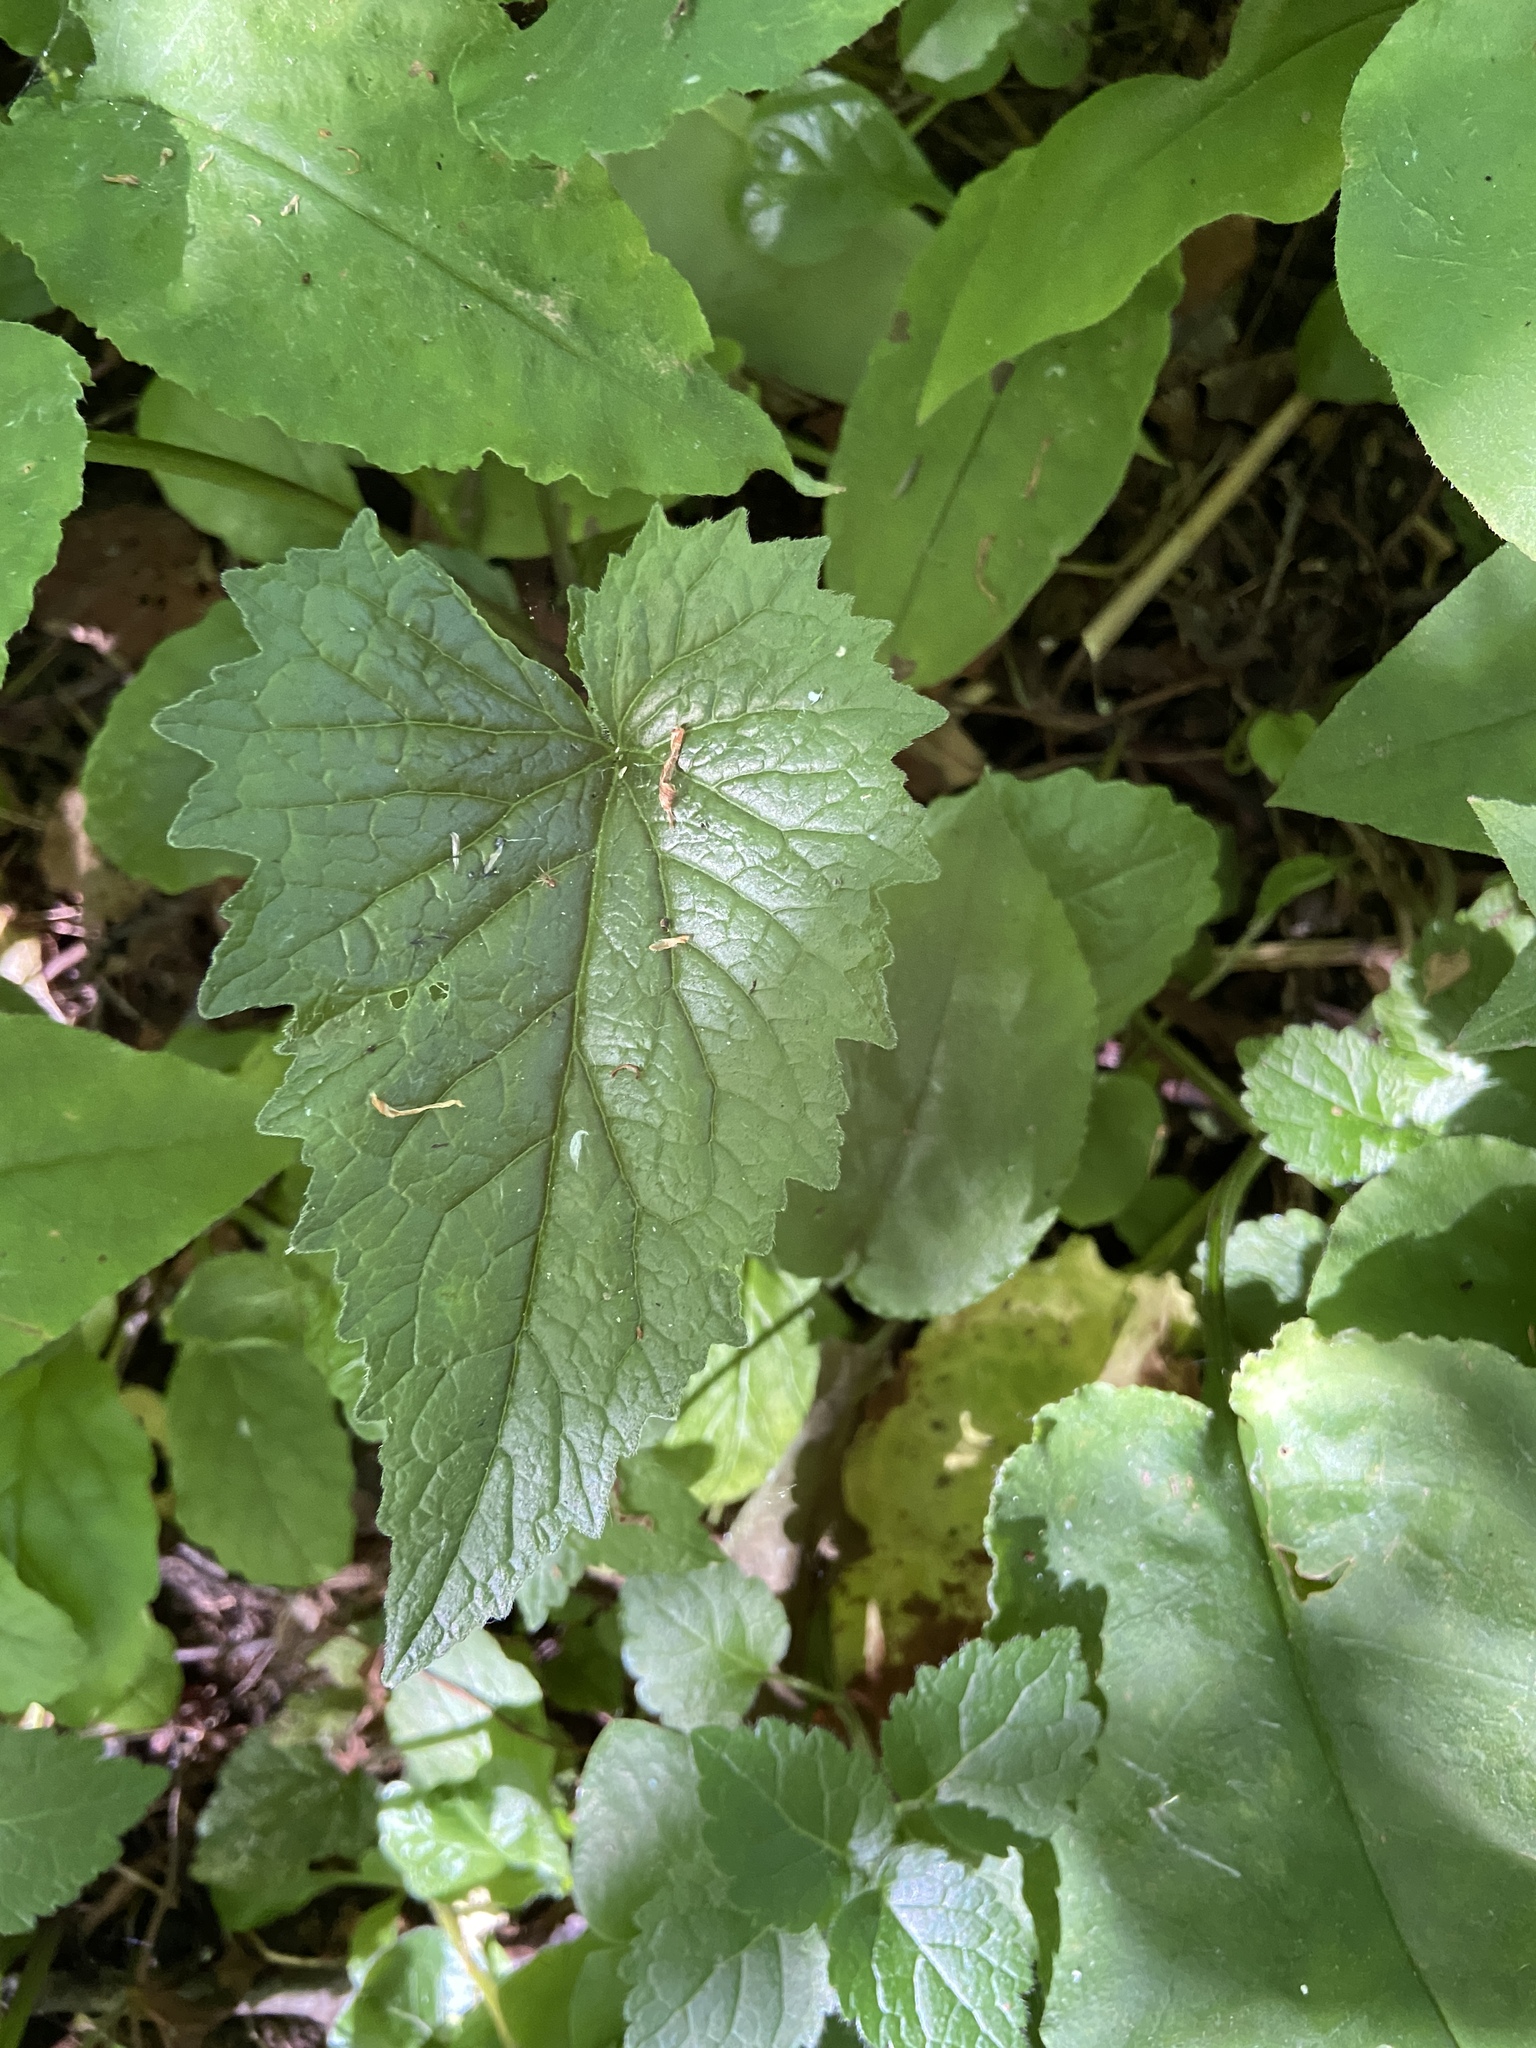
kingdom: Plantae
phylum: Tracheophyta
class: Magnoliopsida
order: Asterales
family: Campanulaceae
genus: Campanula
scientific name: Campanula trachelium
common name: Nettle-leaved bellflower
